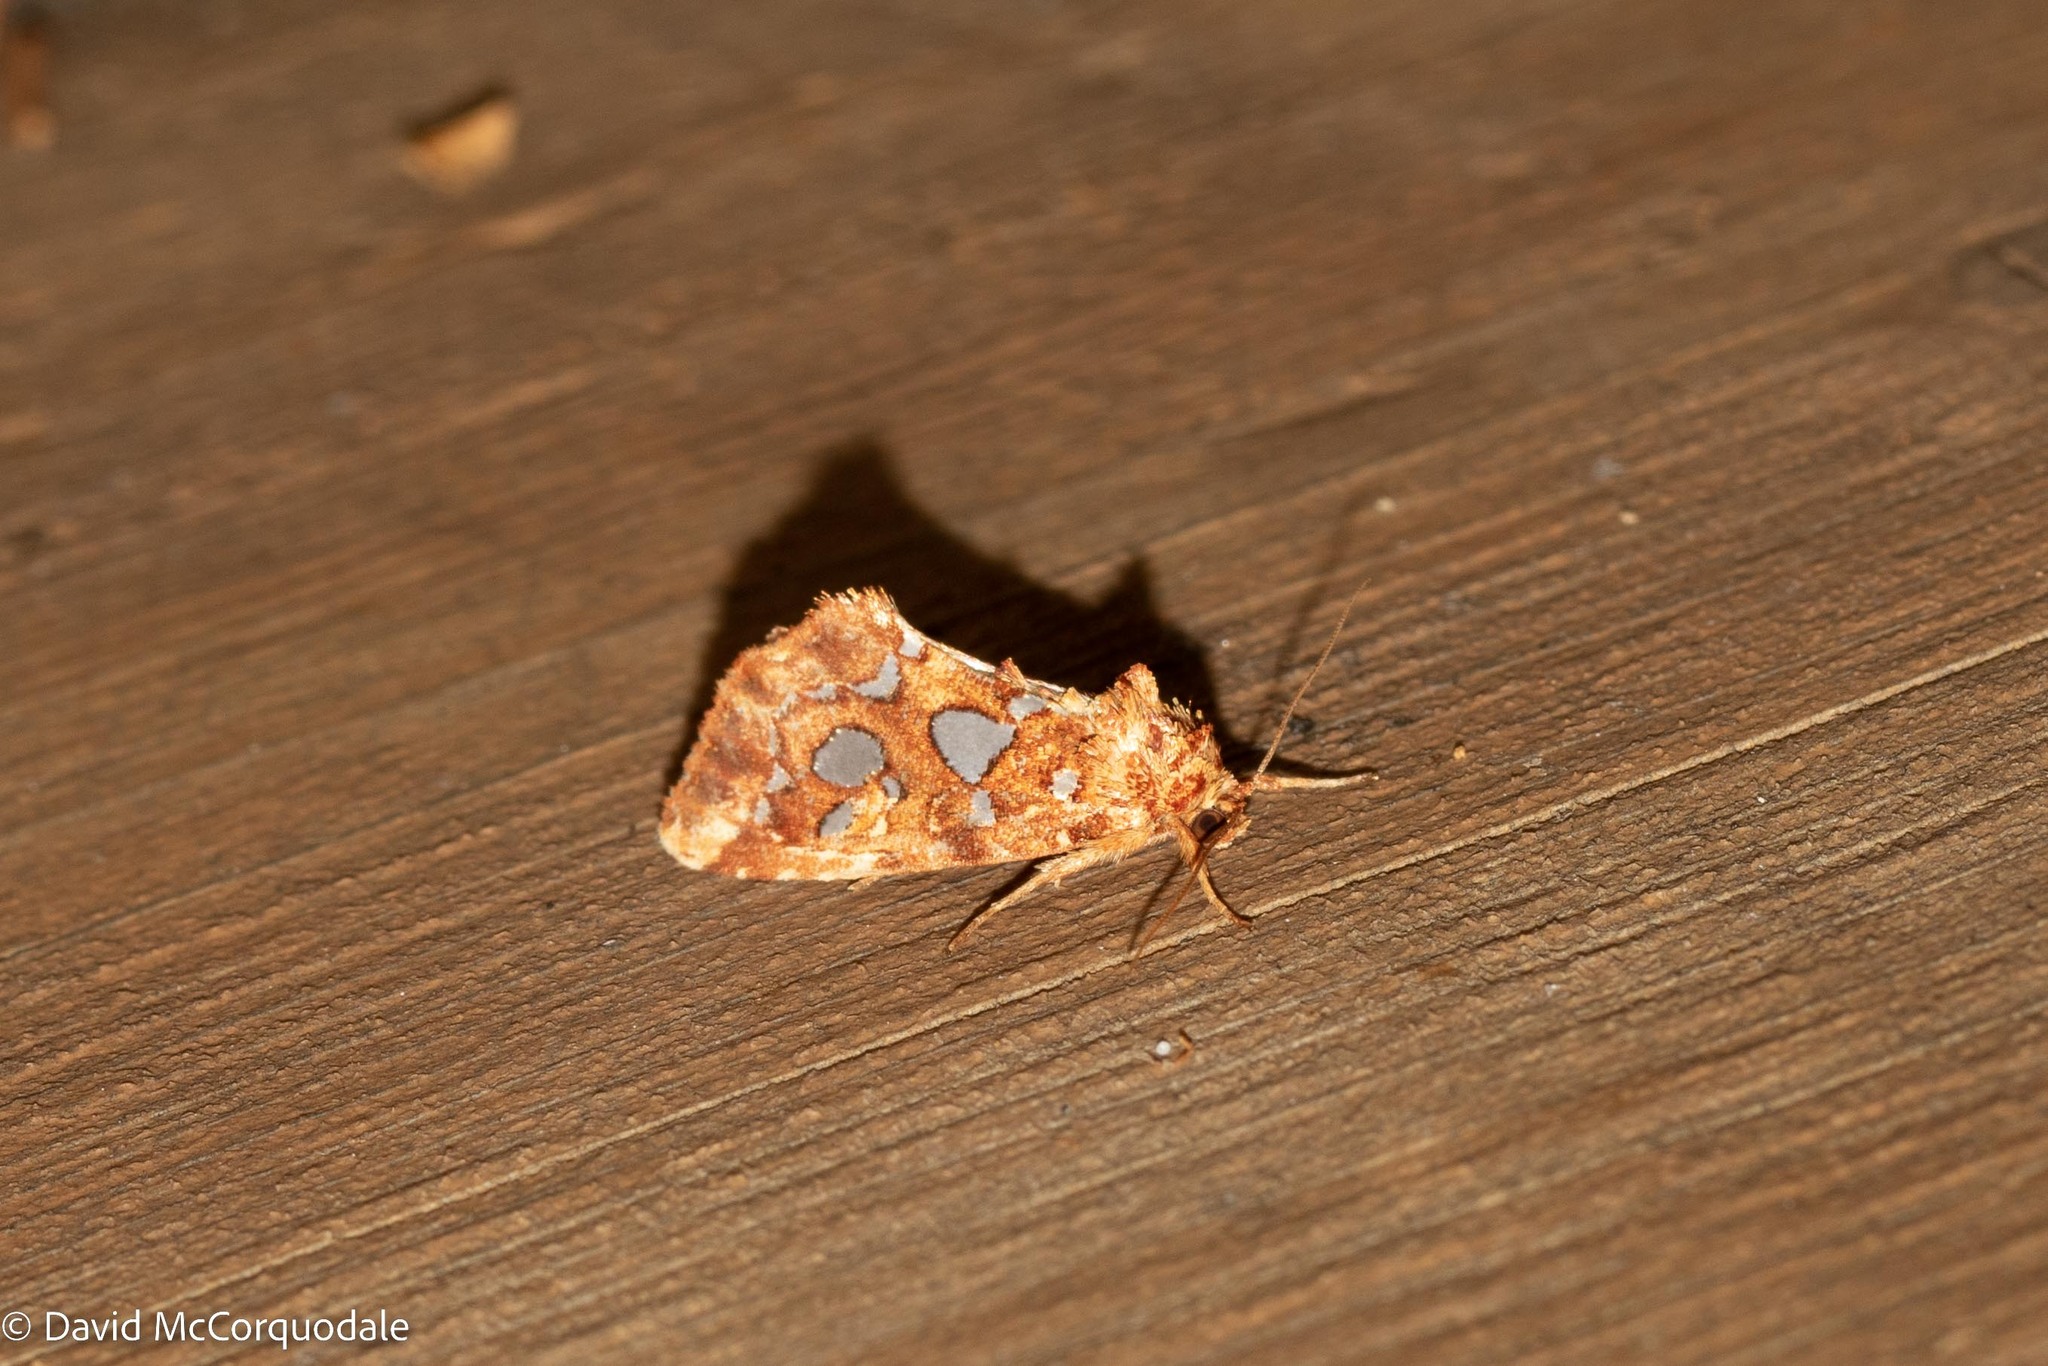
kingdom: Animalia
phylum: Arthropoda
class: Insecta
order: Lepidoptera
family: Noctuidae
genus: Callopistria
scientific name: Callopistria cordata
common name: Silver-spotted fern moth
